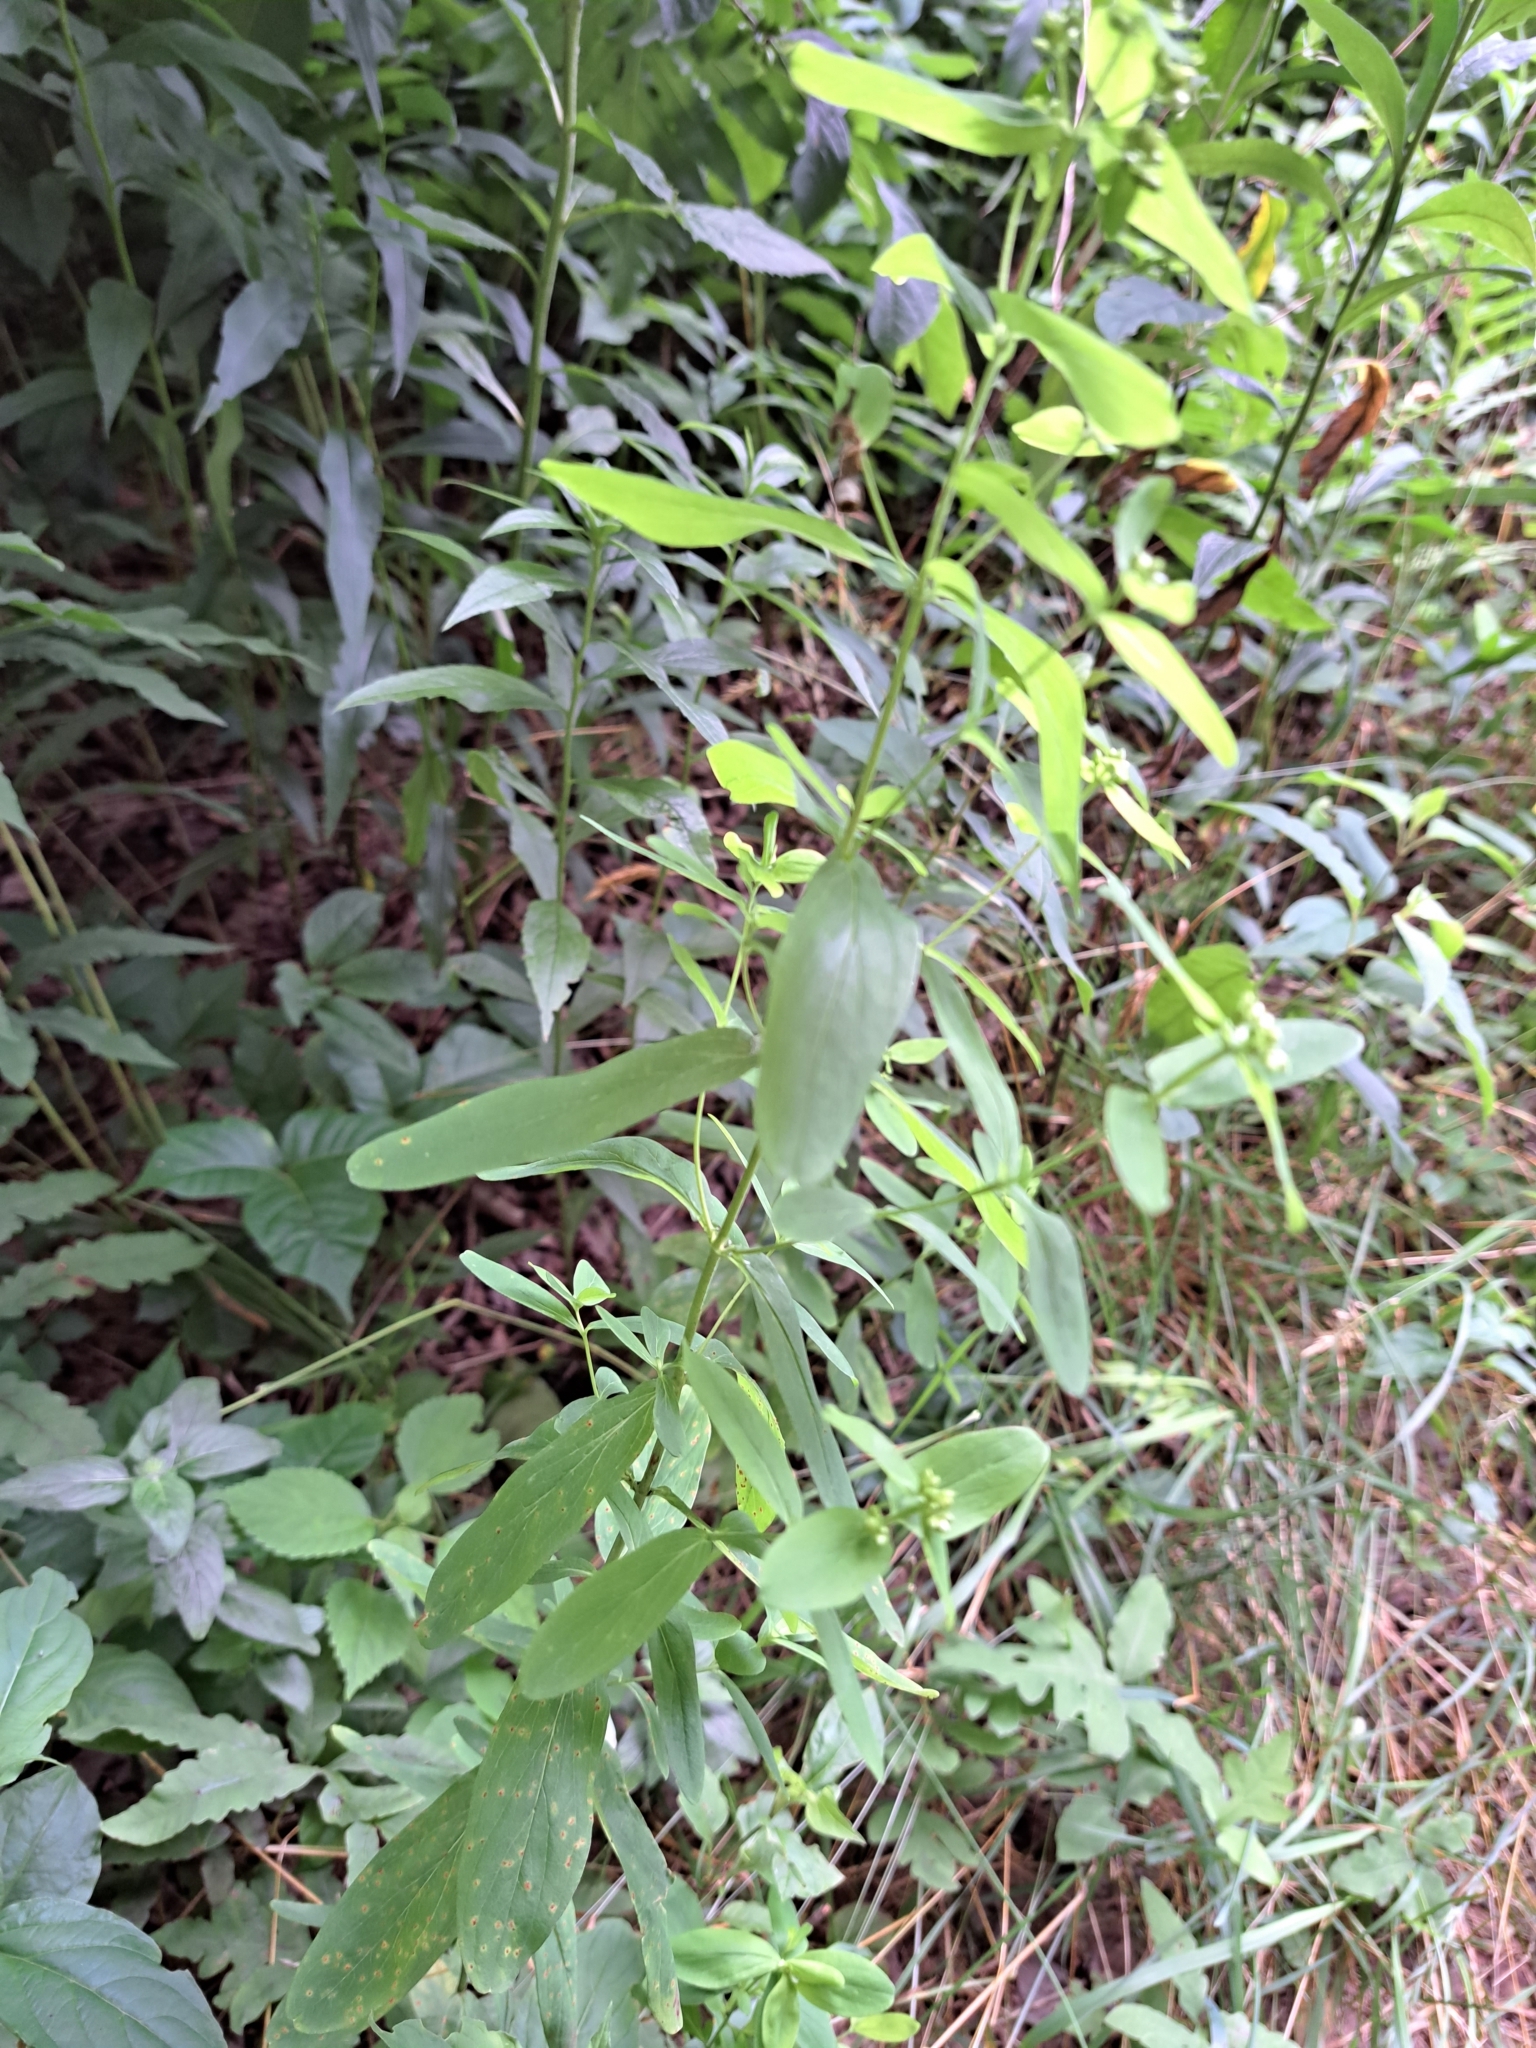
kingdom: Plantae
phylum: Tracheophyta
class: Magnoliopsida
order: Malpighiales
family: Hypericaceae
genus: Hypericum
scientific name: Hypericum punctatum
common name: Spotted st. john's-wort
